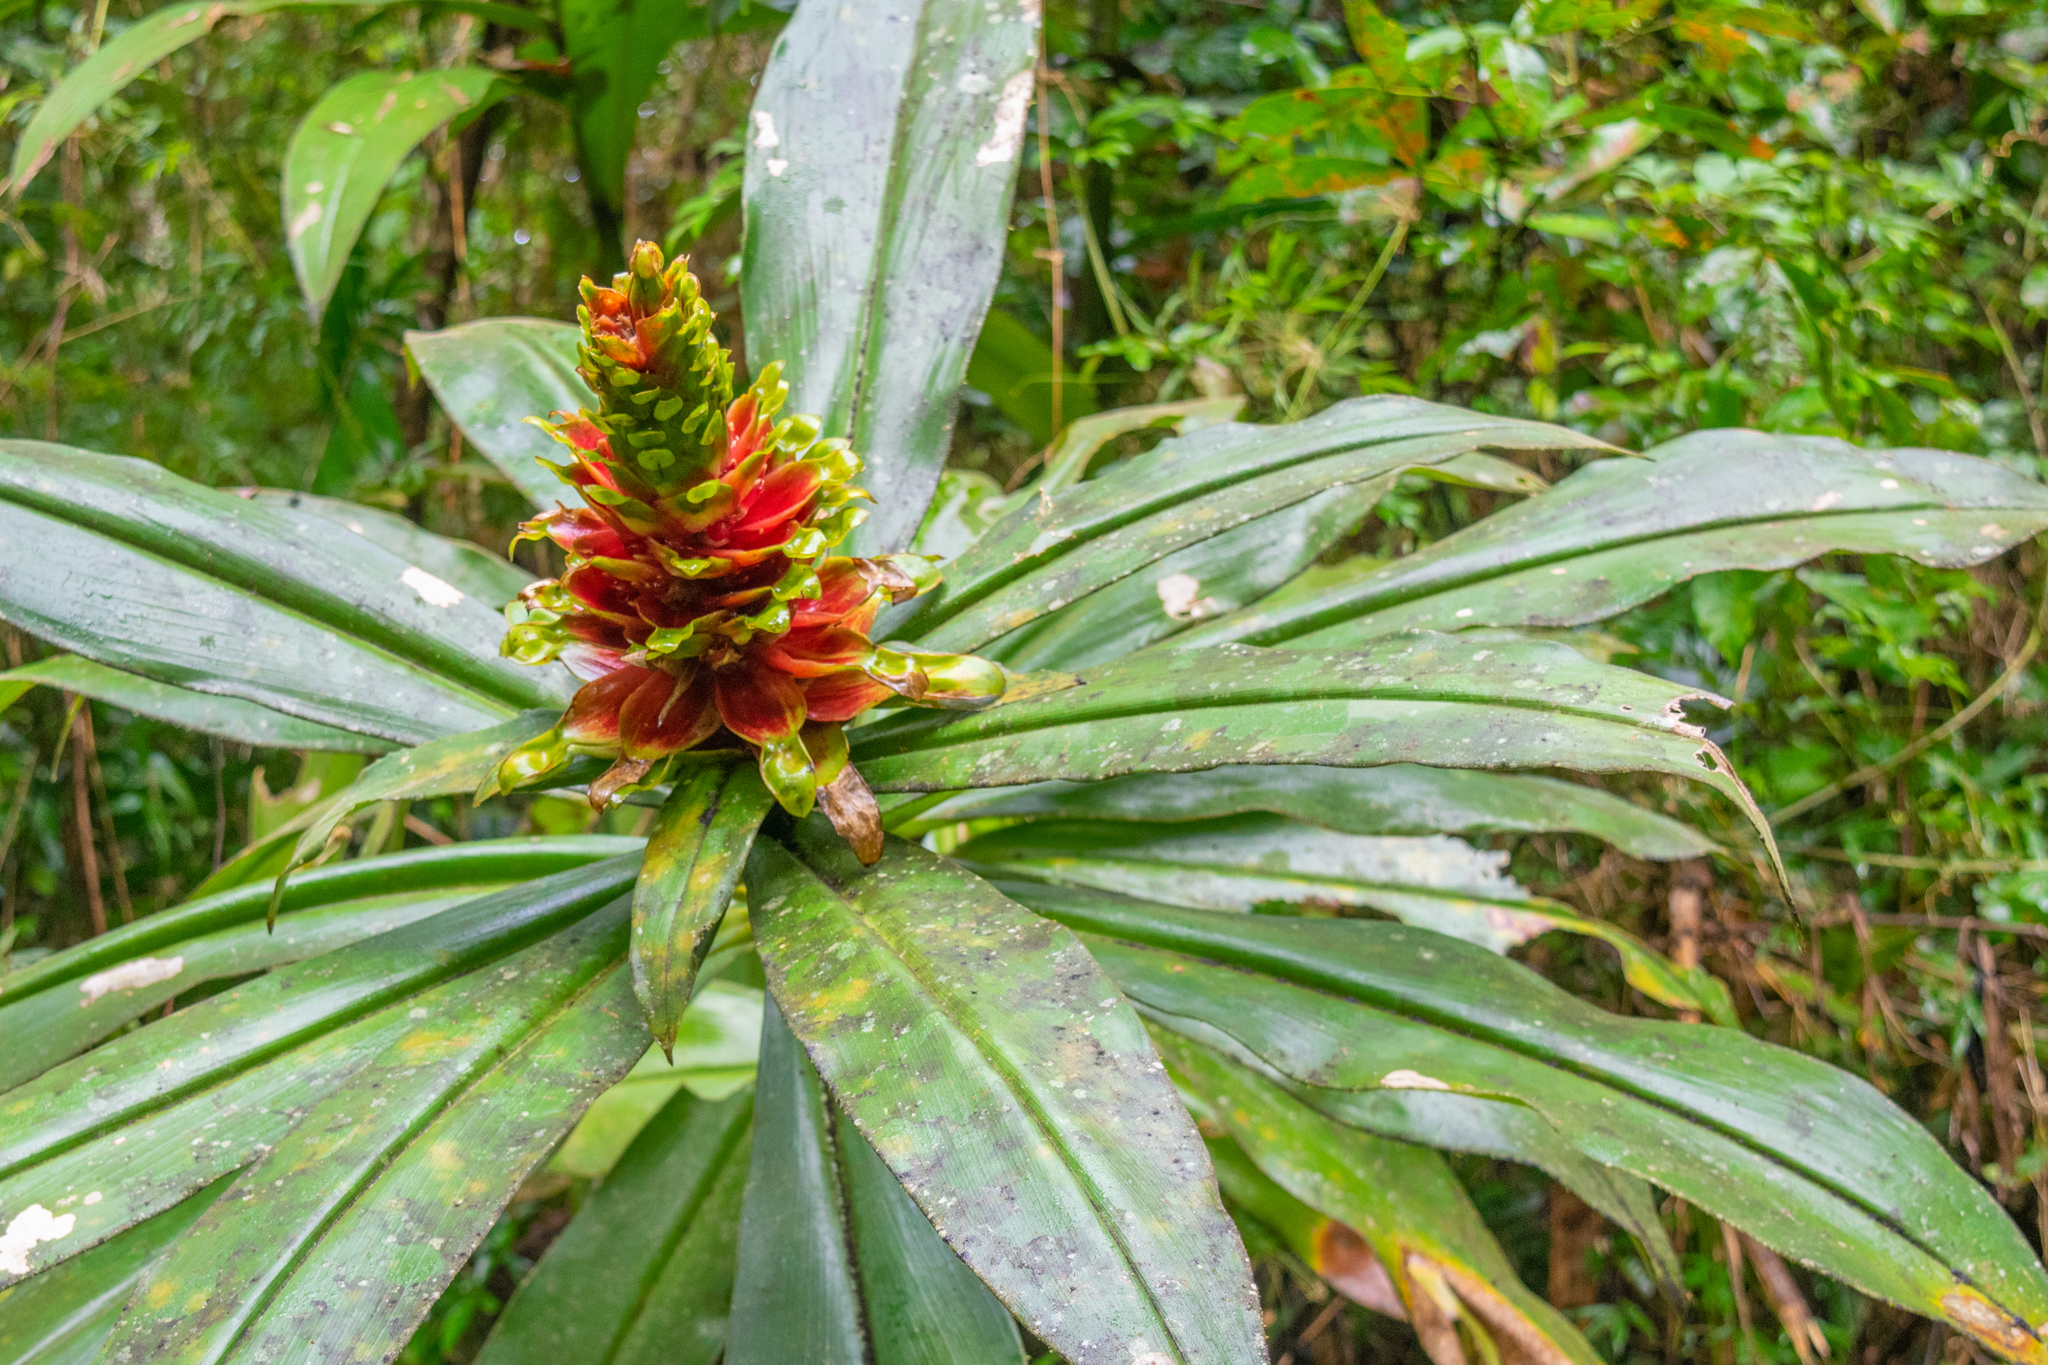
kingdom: Plantae
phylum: Tracheophyta
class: Liliopsida
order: Zingiberales
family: Costaceae
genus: Costus
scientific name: Costus guanaiensis
